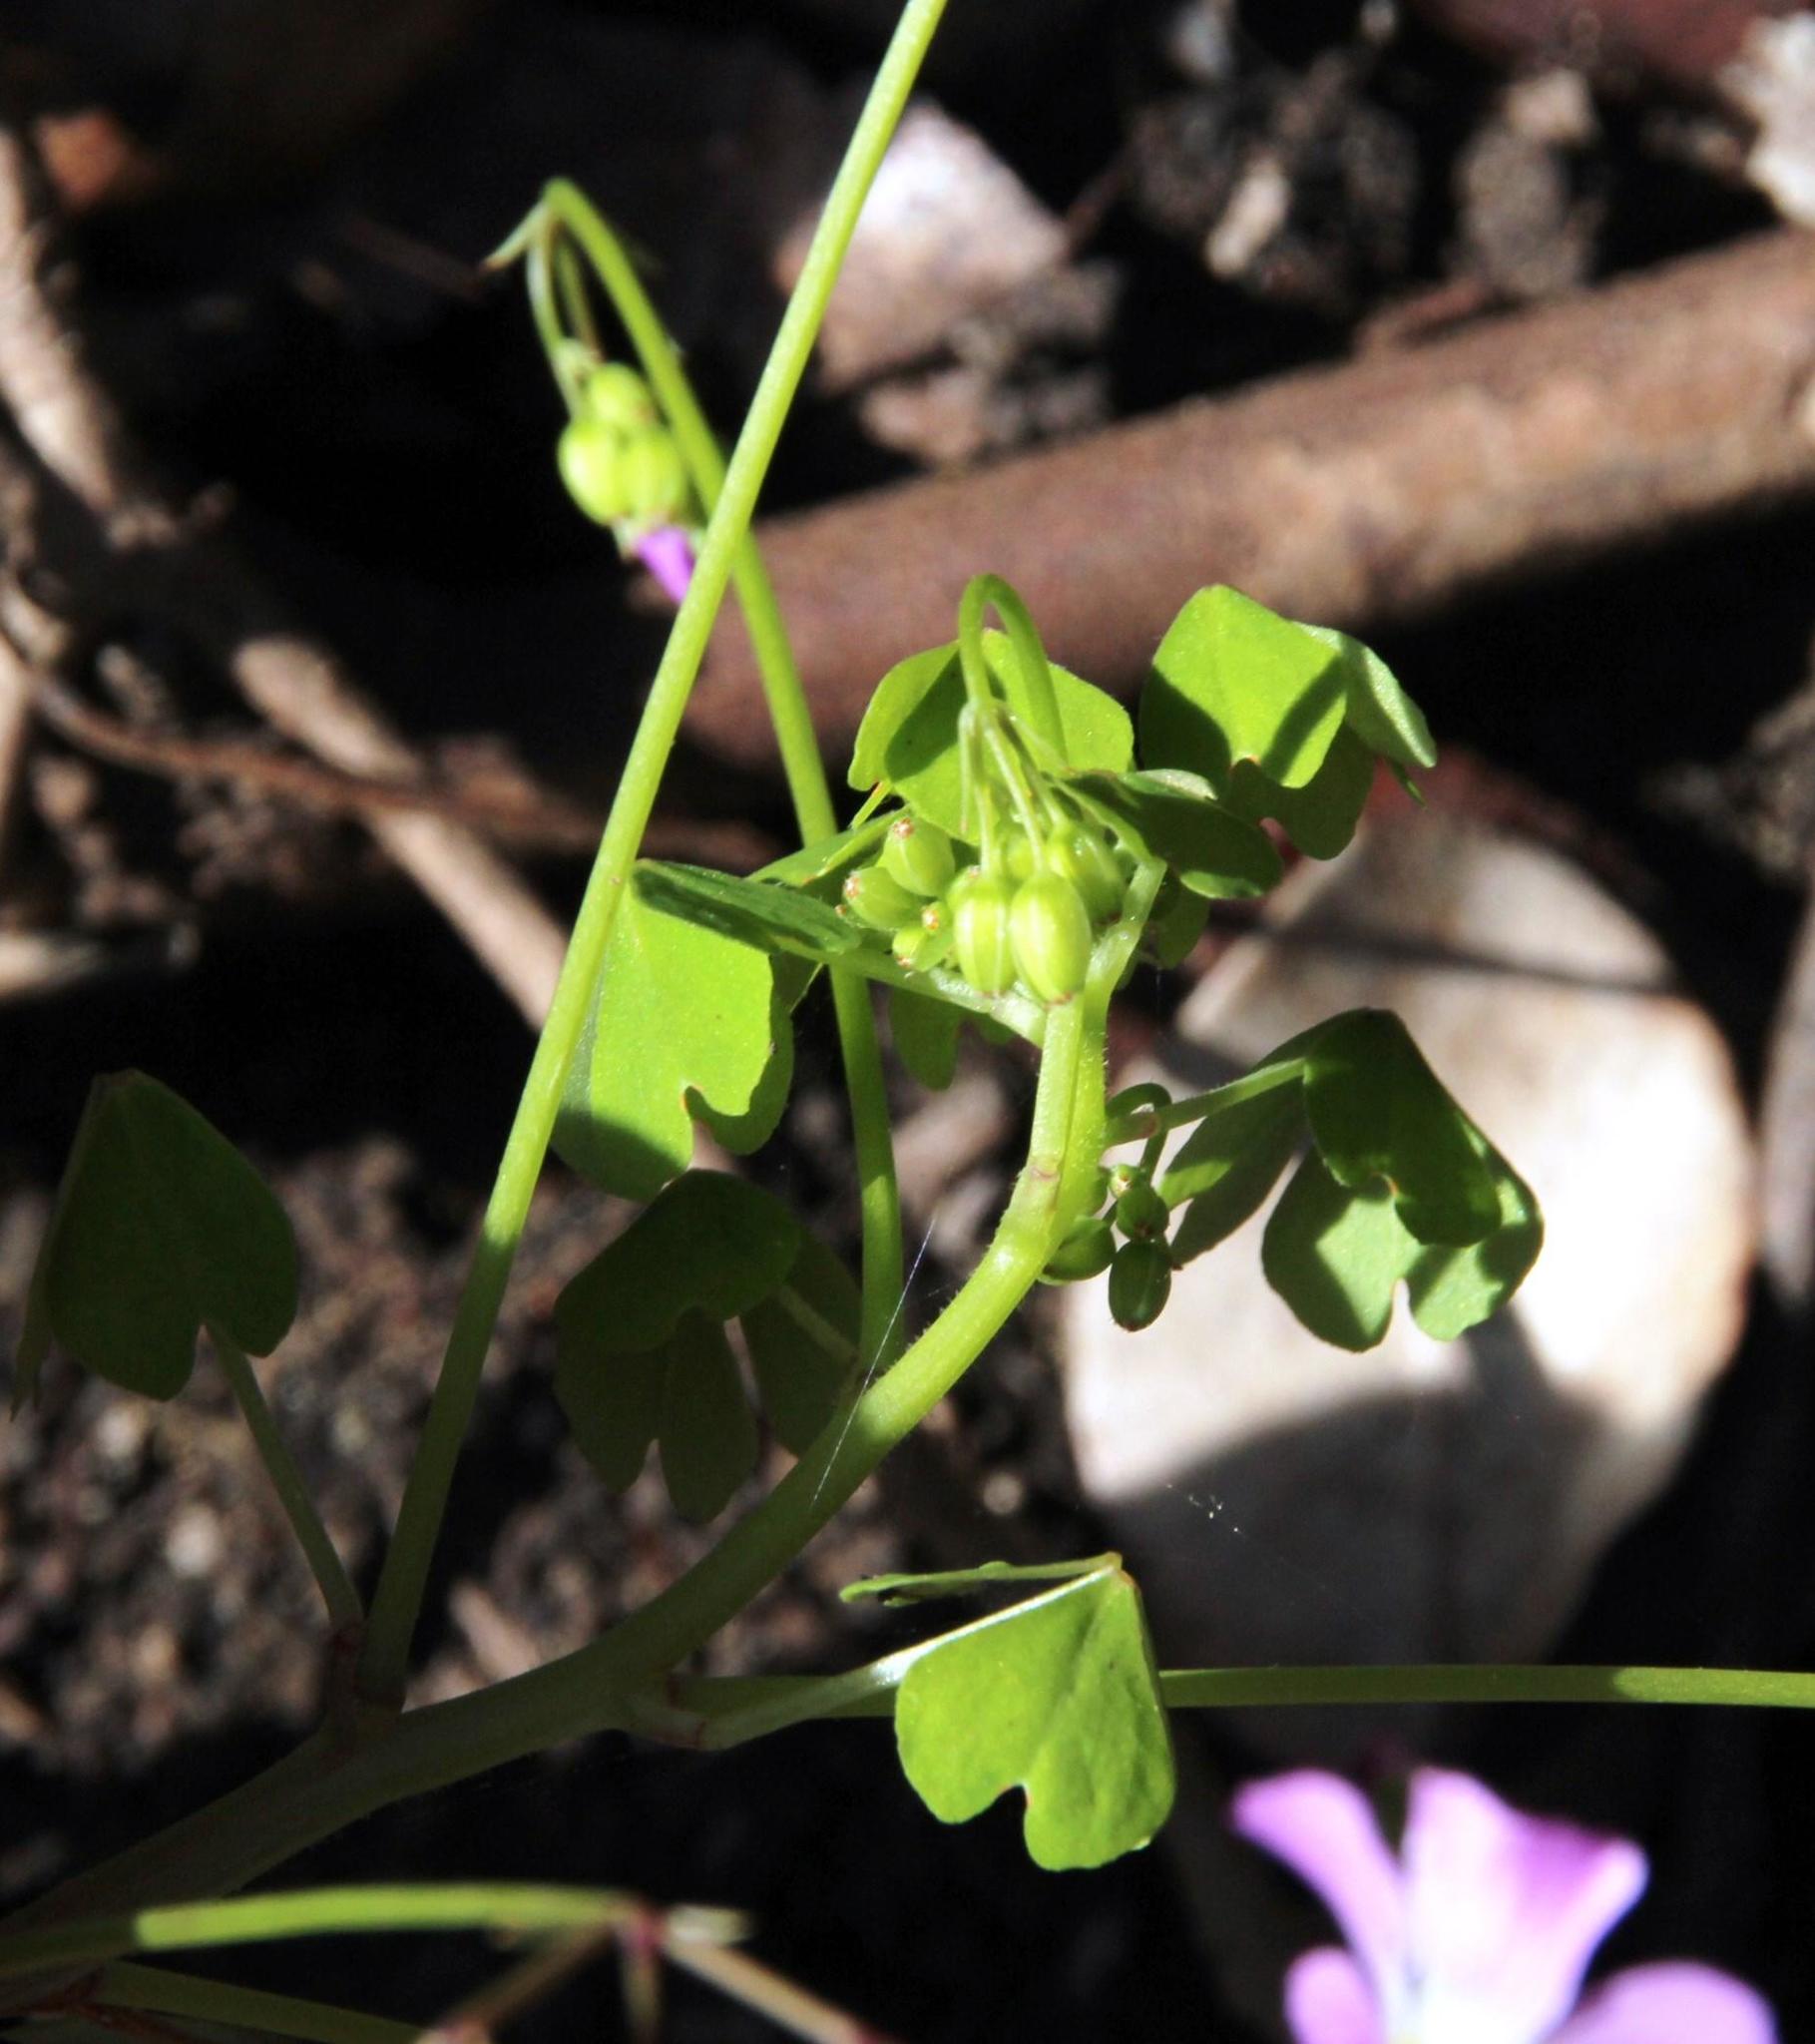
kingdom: Plantae
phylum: Tracheophyta
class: Magnoliopsida
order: Oxalidales
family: Oxalidaceae
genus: Oxalis
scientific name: Oxalis rosea
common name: Annual pink-sorrel
